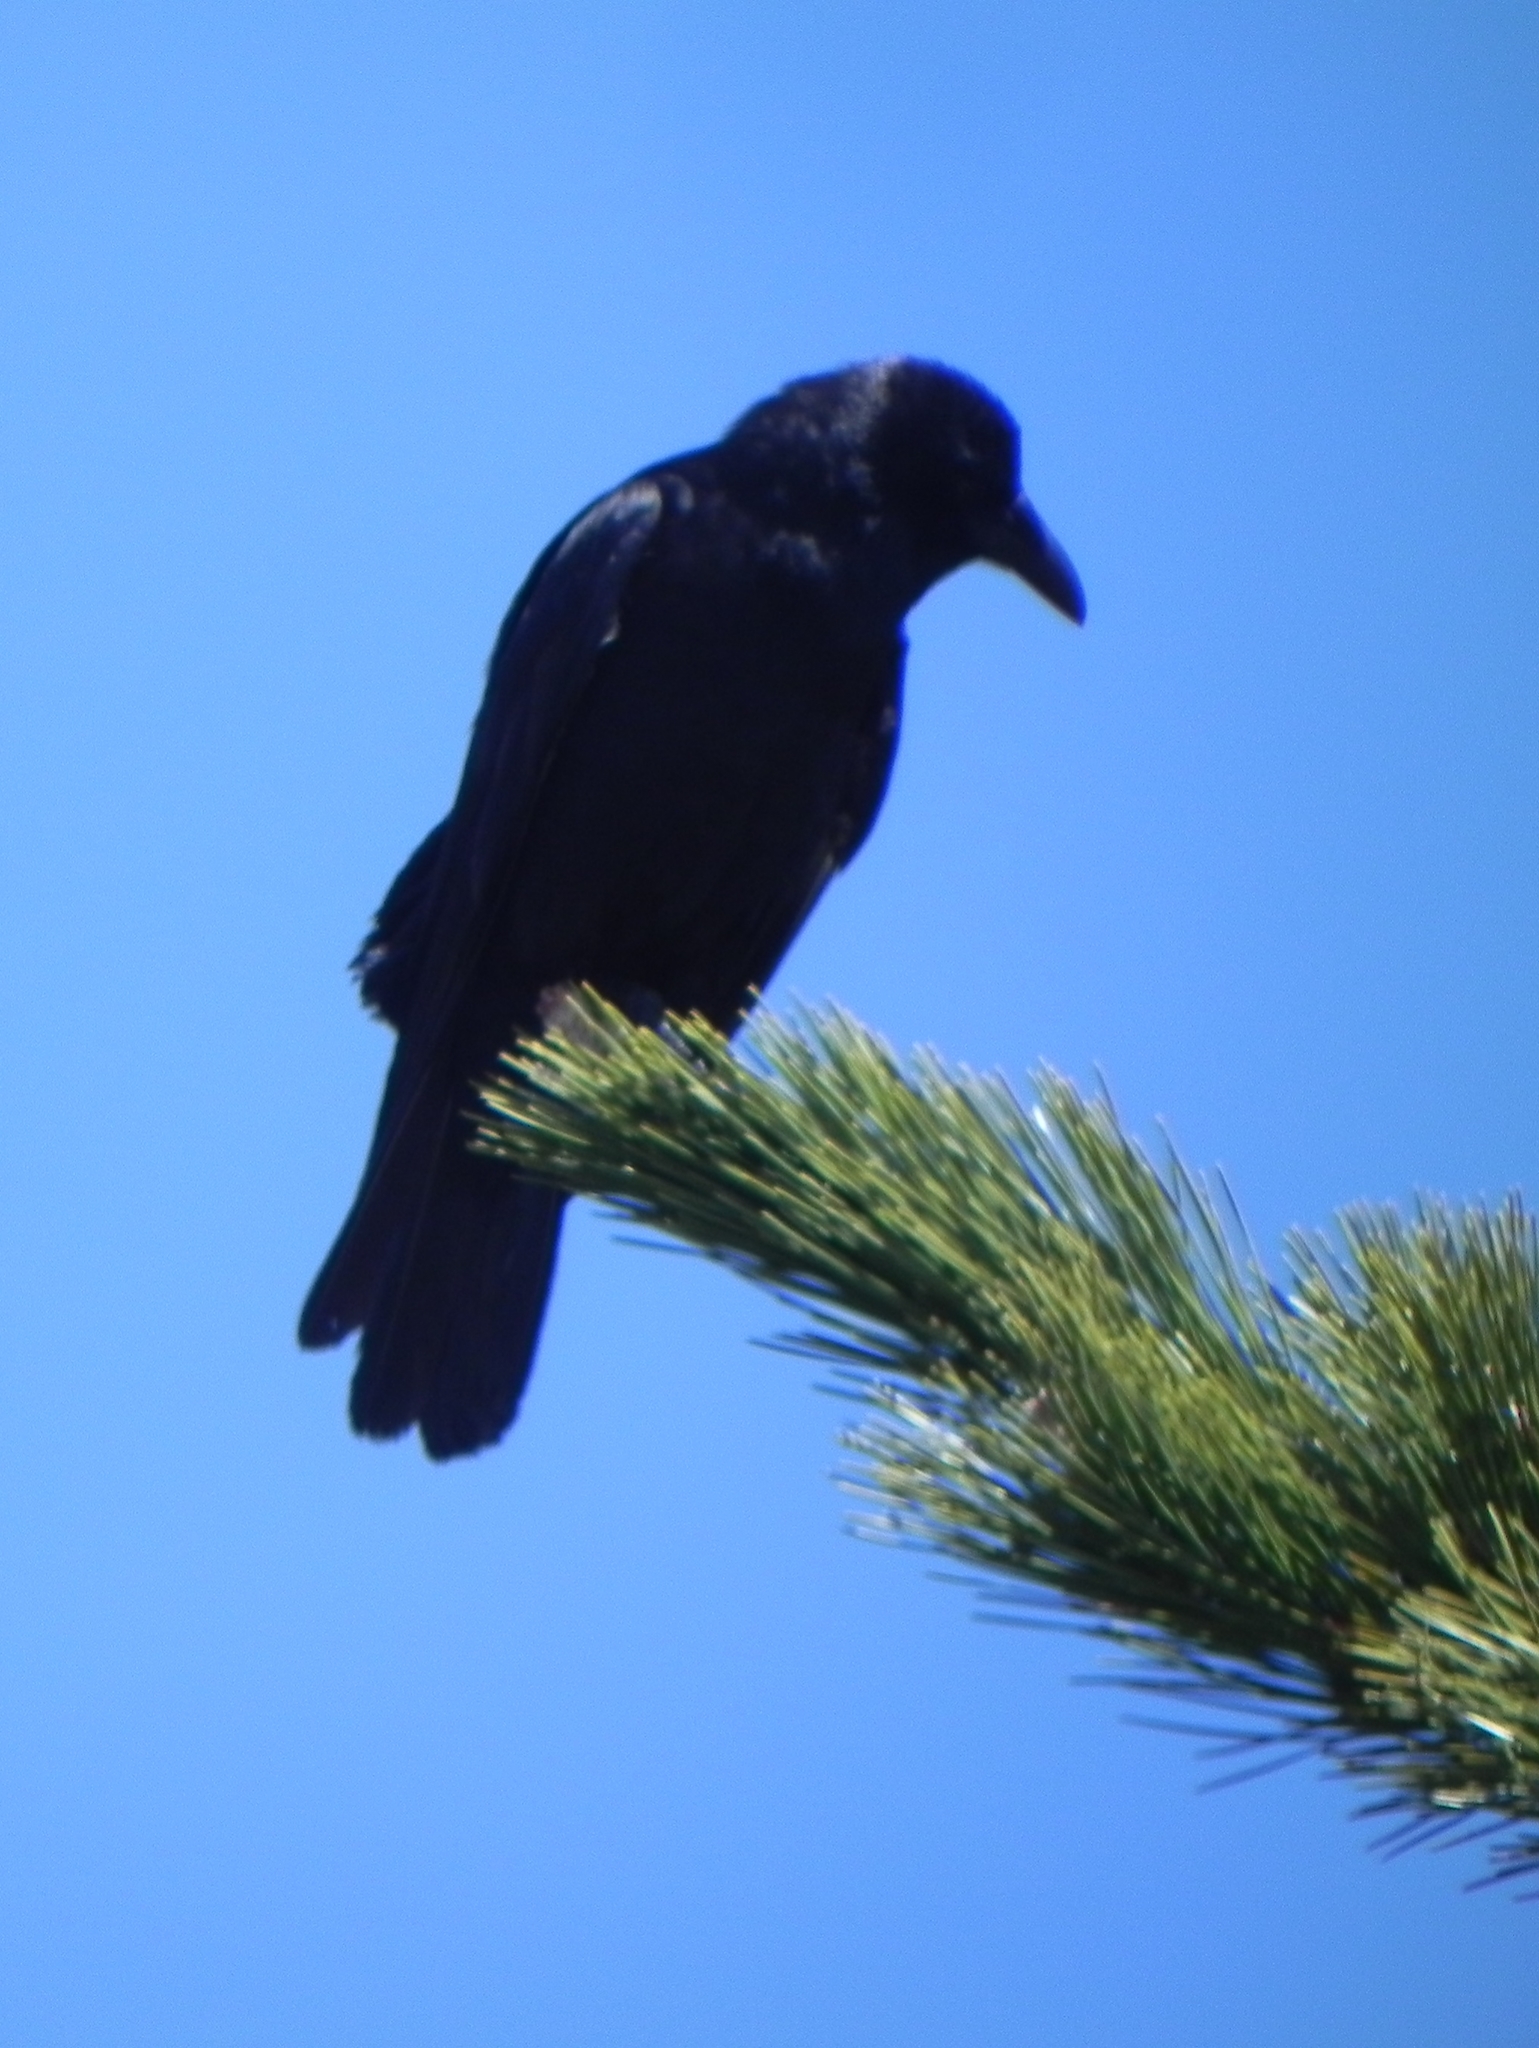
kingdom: Animalia
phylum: Chordata
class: Aves
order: Passeriformes
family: Corvidae
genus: Corvus
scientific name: Corvus ossifragus
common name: Fish crow
